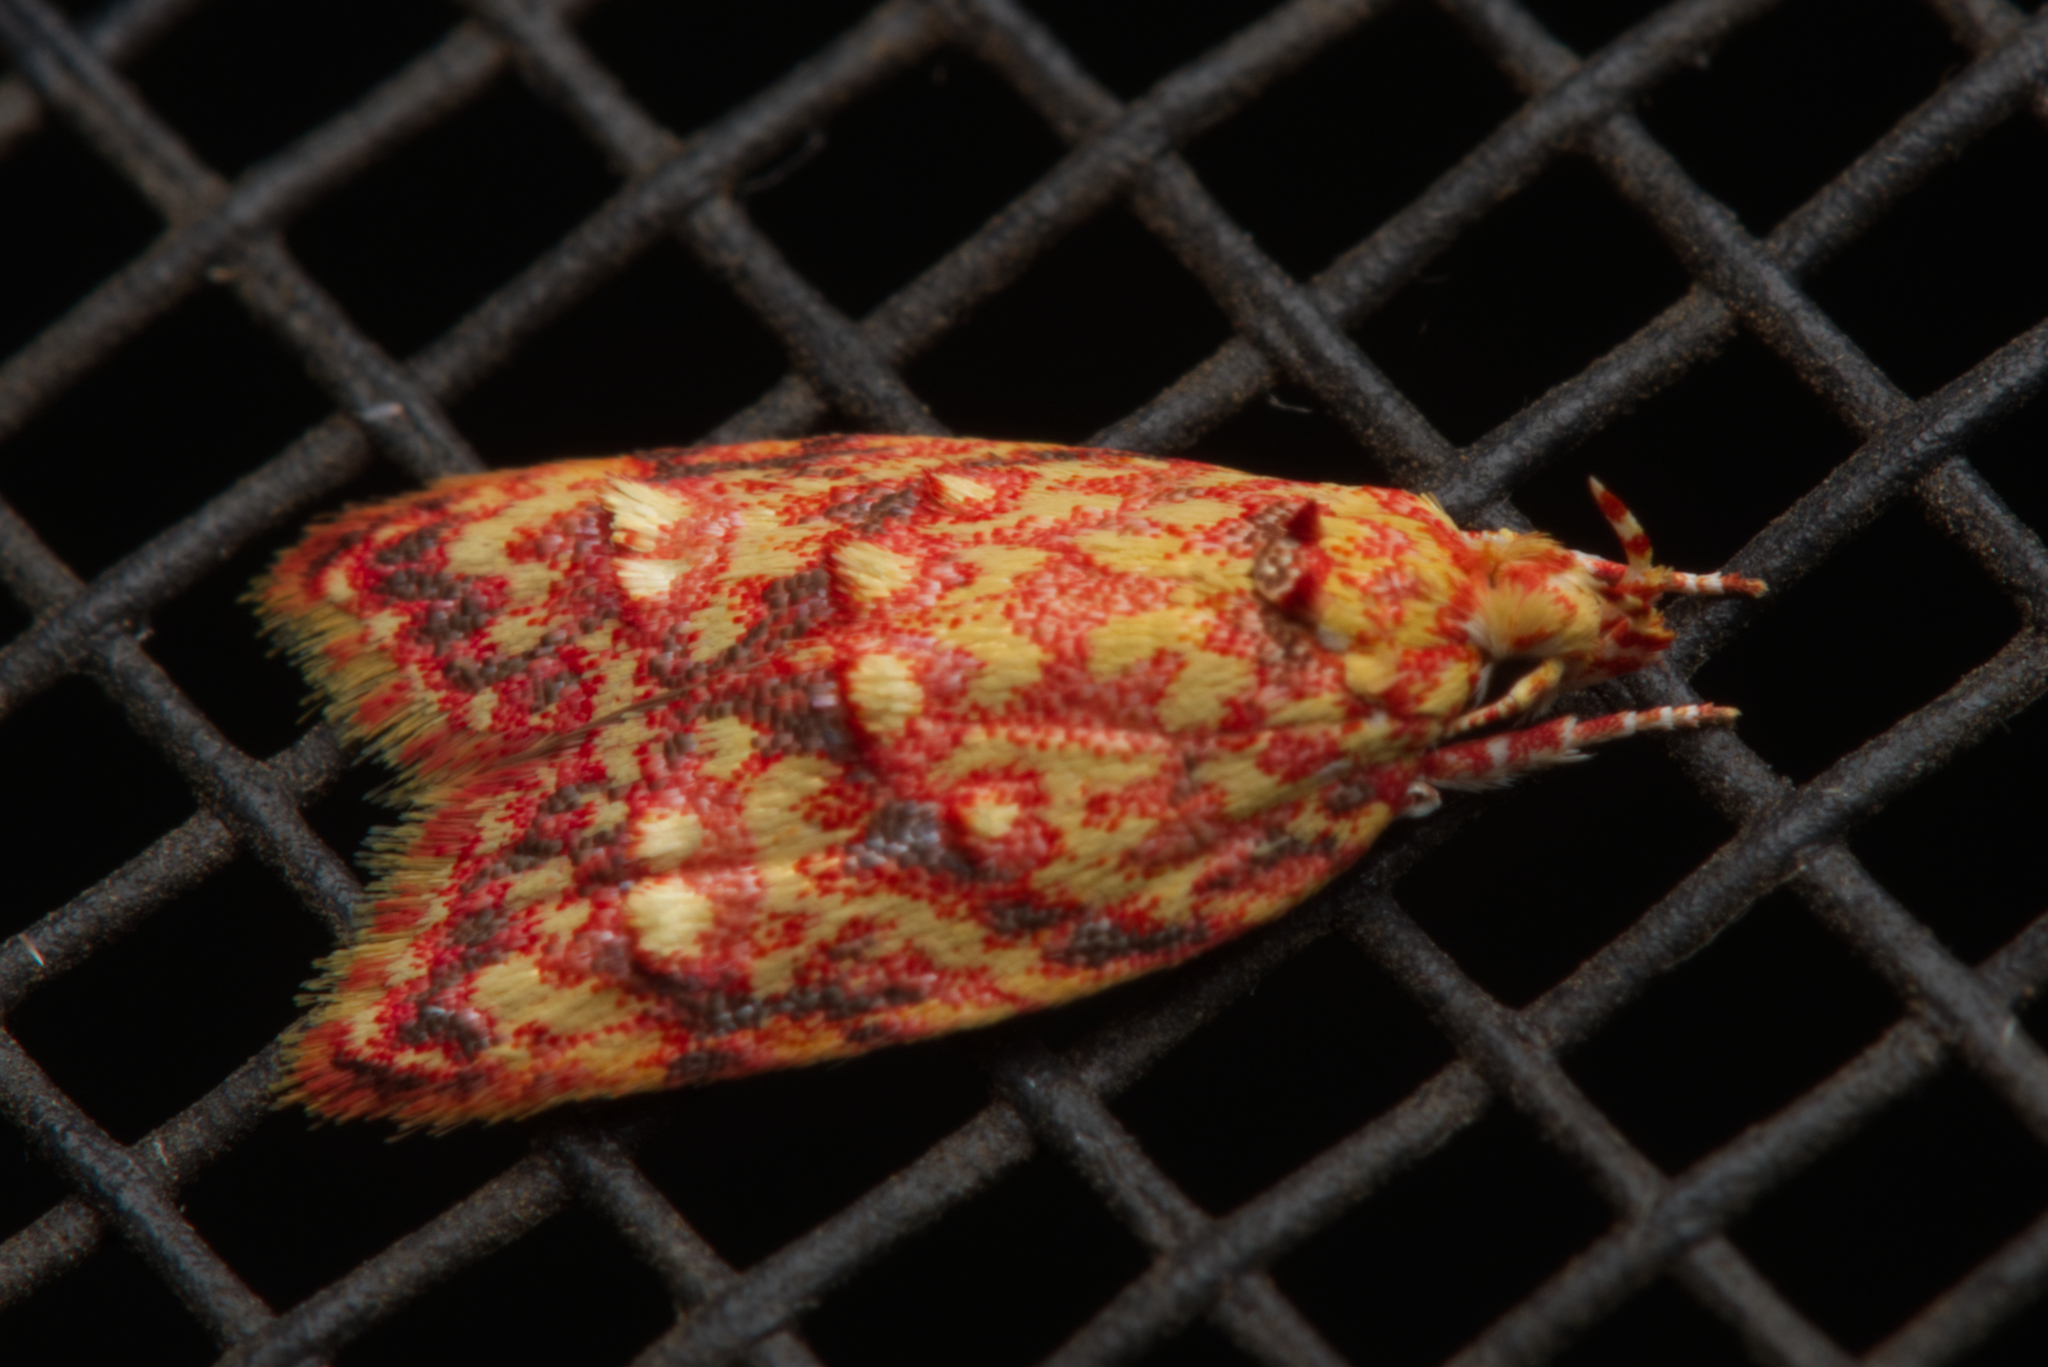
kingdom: Animalia
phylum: Arthropoda
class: Insecta
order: Lepidoptera
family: Oecophoridae
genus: Lophopepla
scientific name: Lophopepla igniferella
